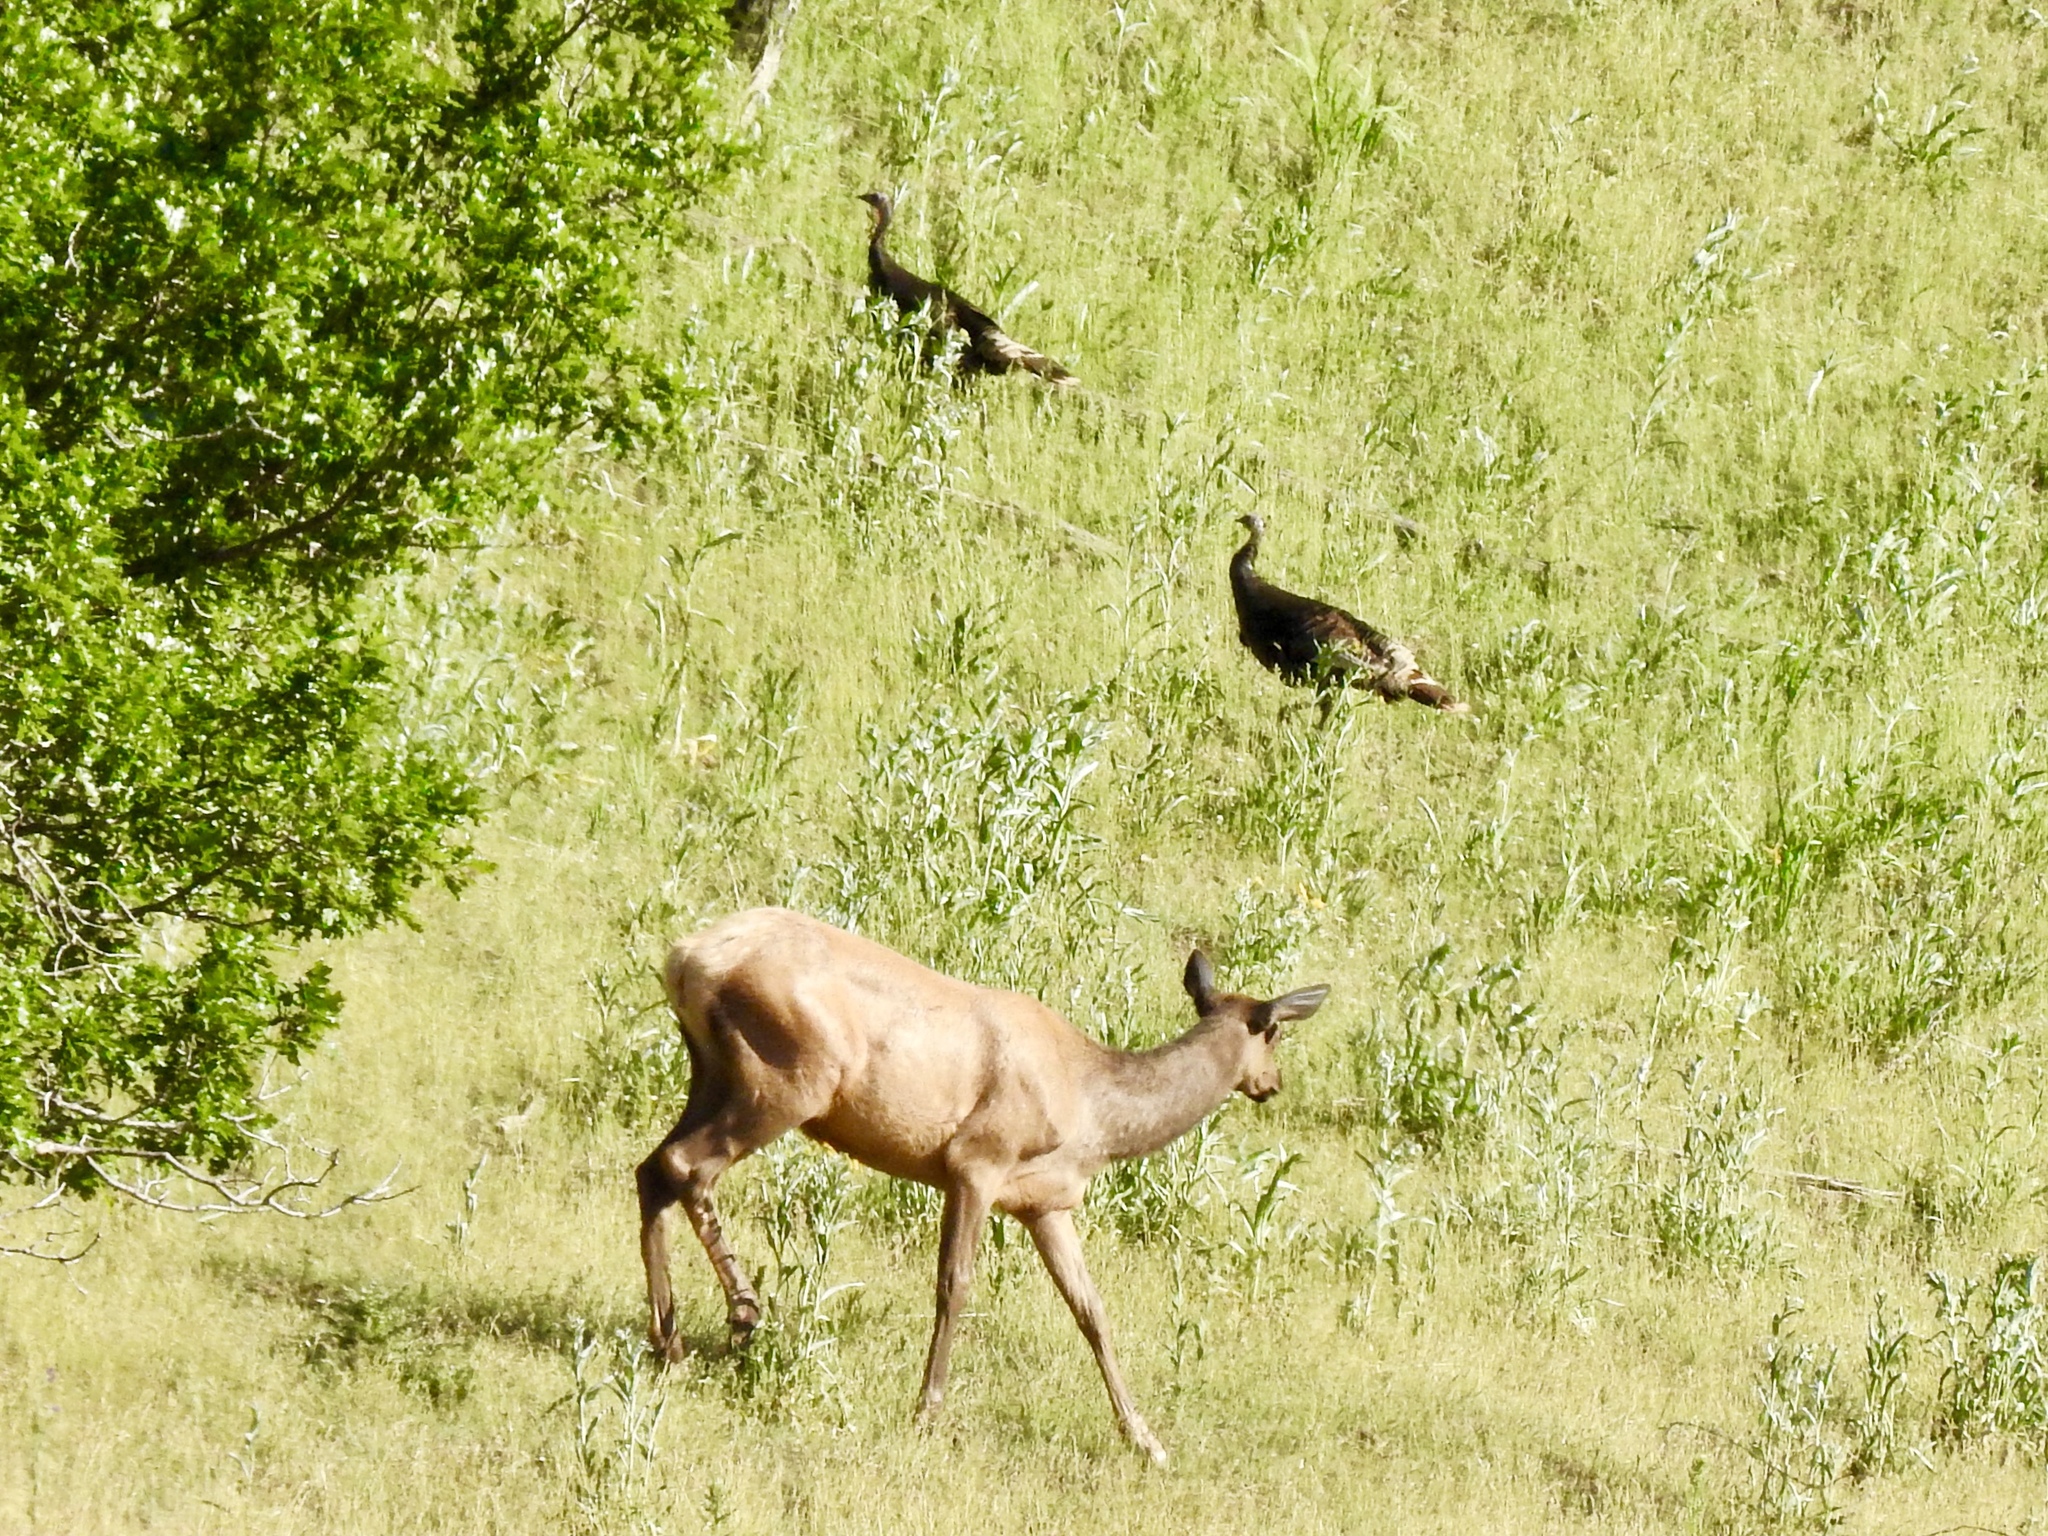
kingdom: Animalia
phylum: Chordata
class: Mammalia
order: Artiodactyla
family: Cervidae
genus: Cervus
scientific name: Cervus elaphus
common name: Red deer
